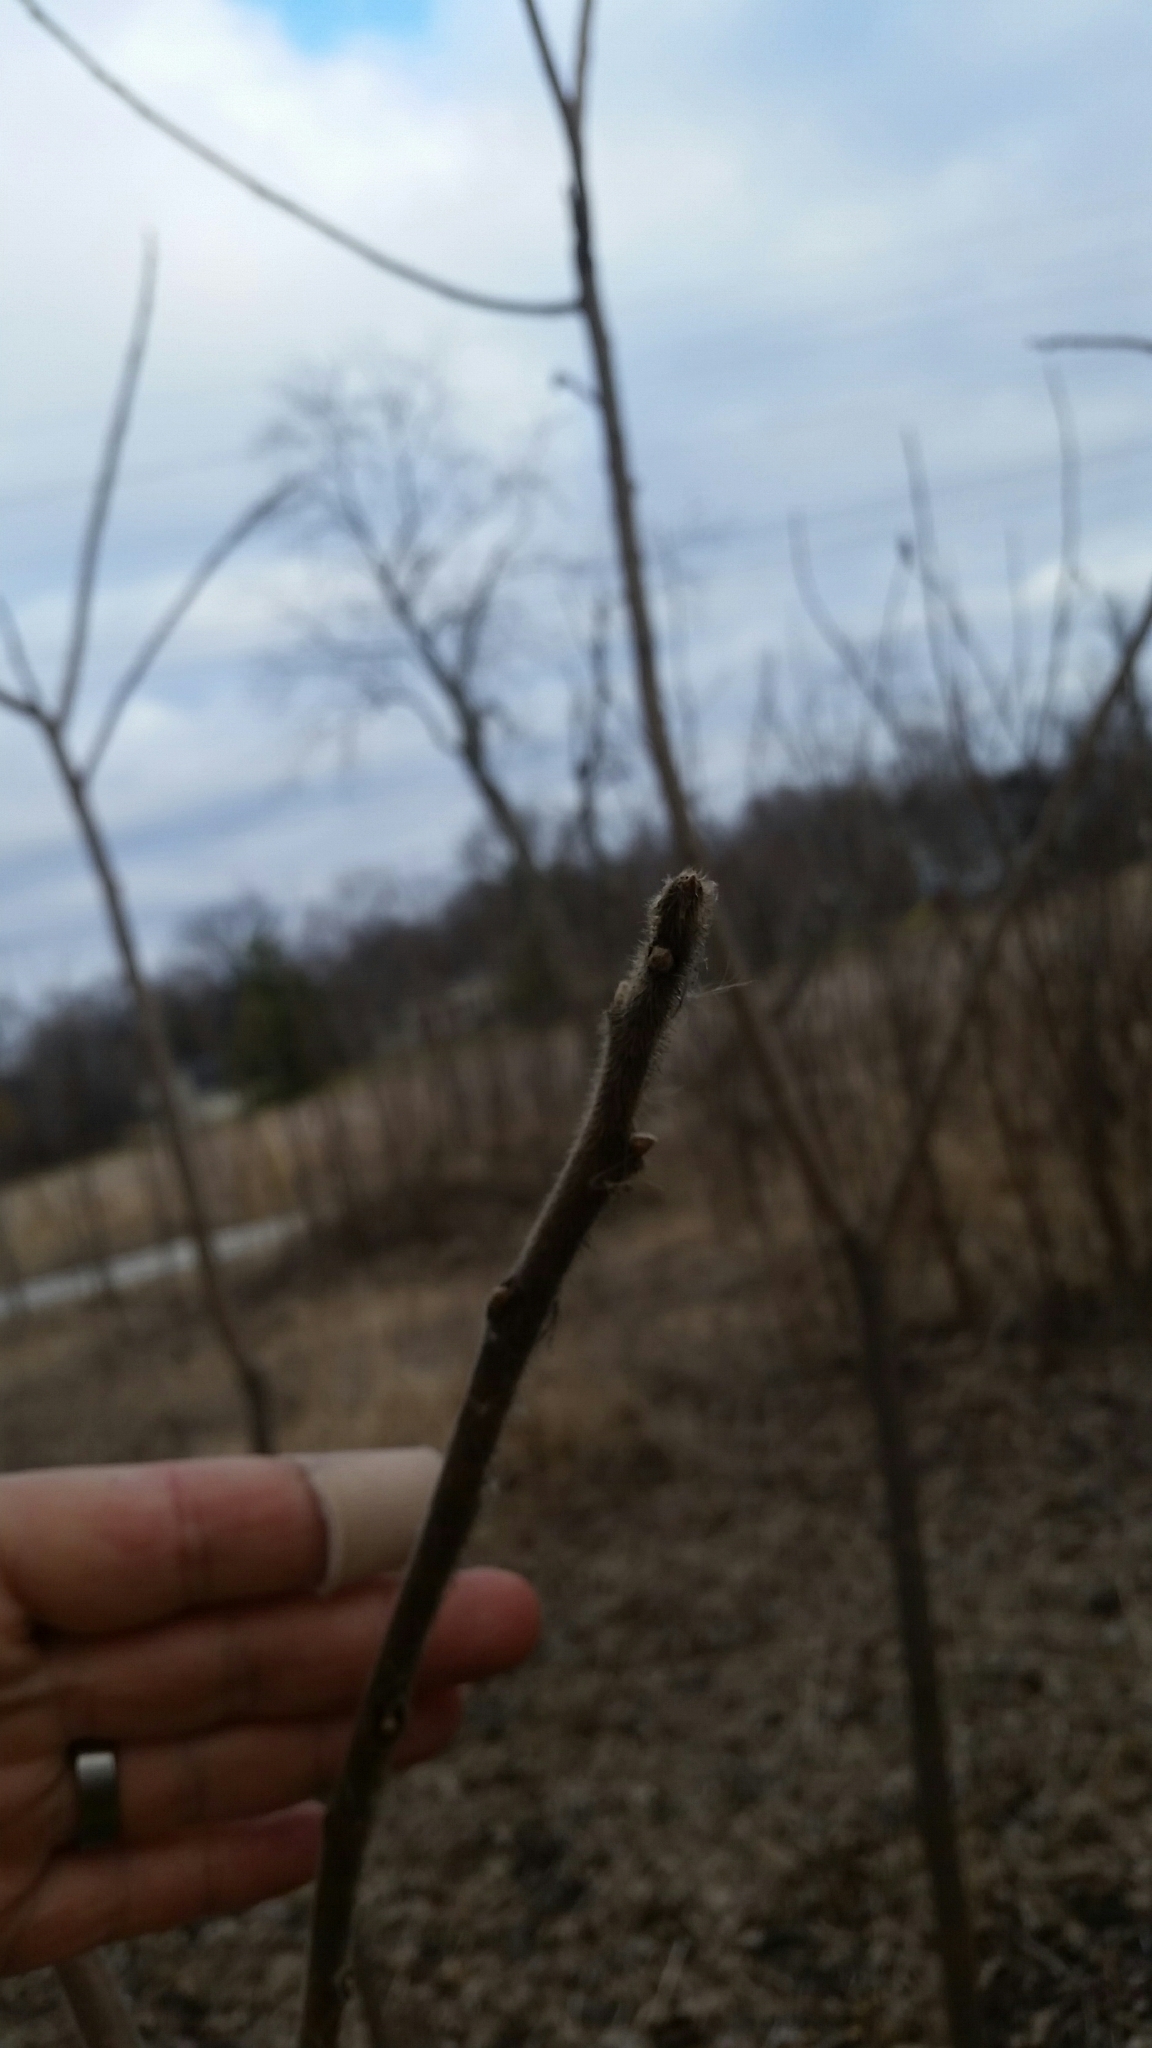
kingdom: Plantae
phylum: Tracheophyta
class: Magnoliopsida
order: Sapindales
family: Anacardiaceae
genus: Rhus
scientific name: Rhus typhina
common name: Staghorn sumac
